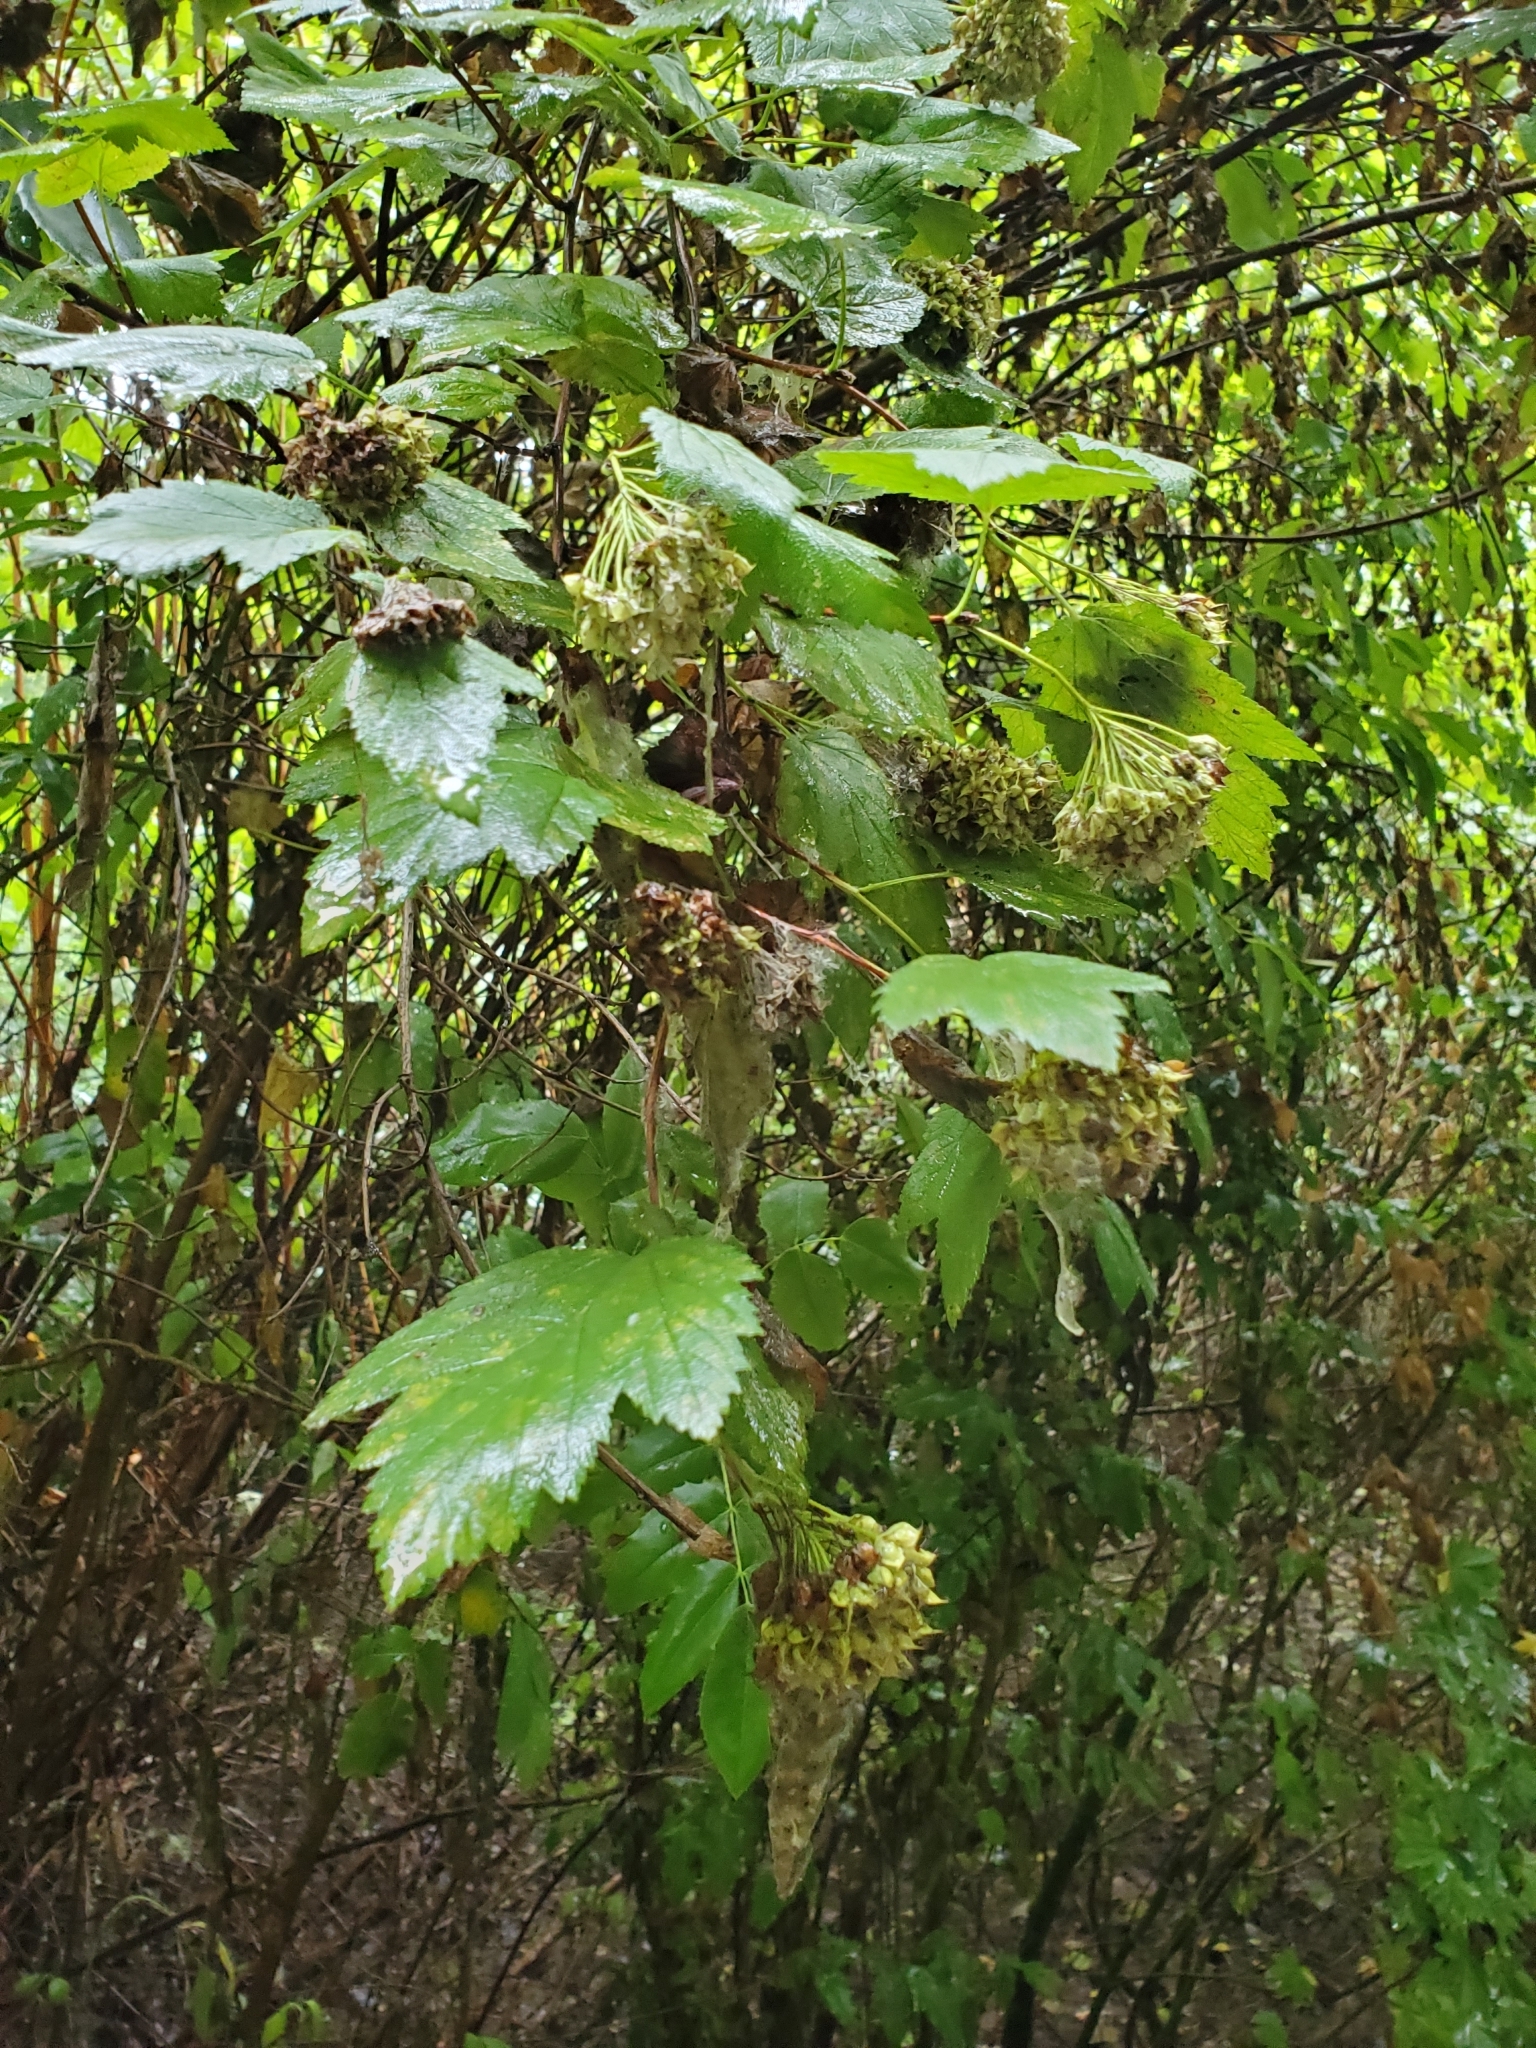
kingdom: Plantae
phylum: Tracheophyta
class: Magnoliopsida
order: Rosales
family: Rosaceae
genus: Physocarpus
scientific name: Physocarpus capitatus
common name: Pacific ninebark
